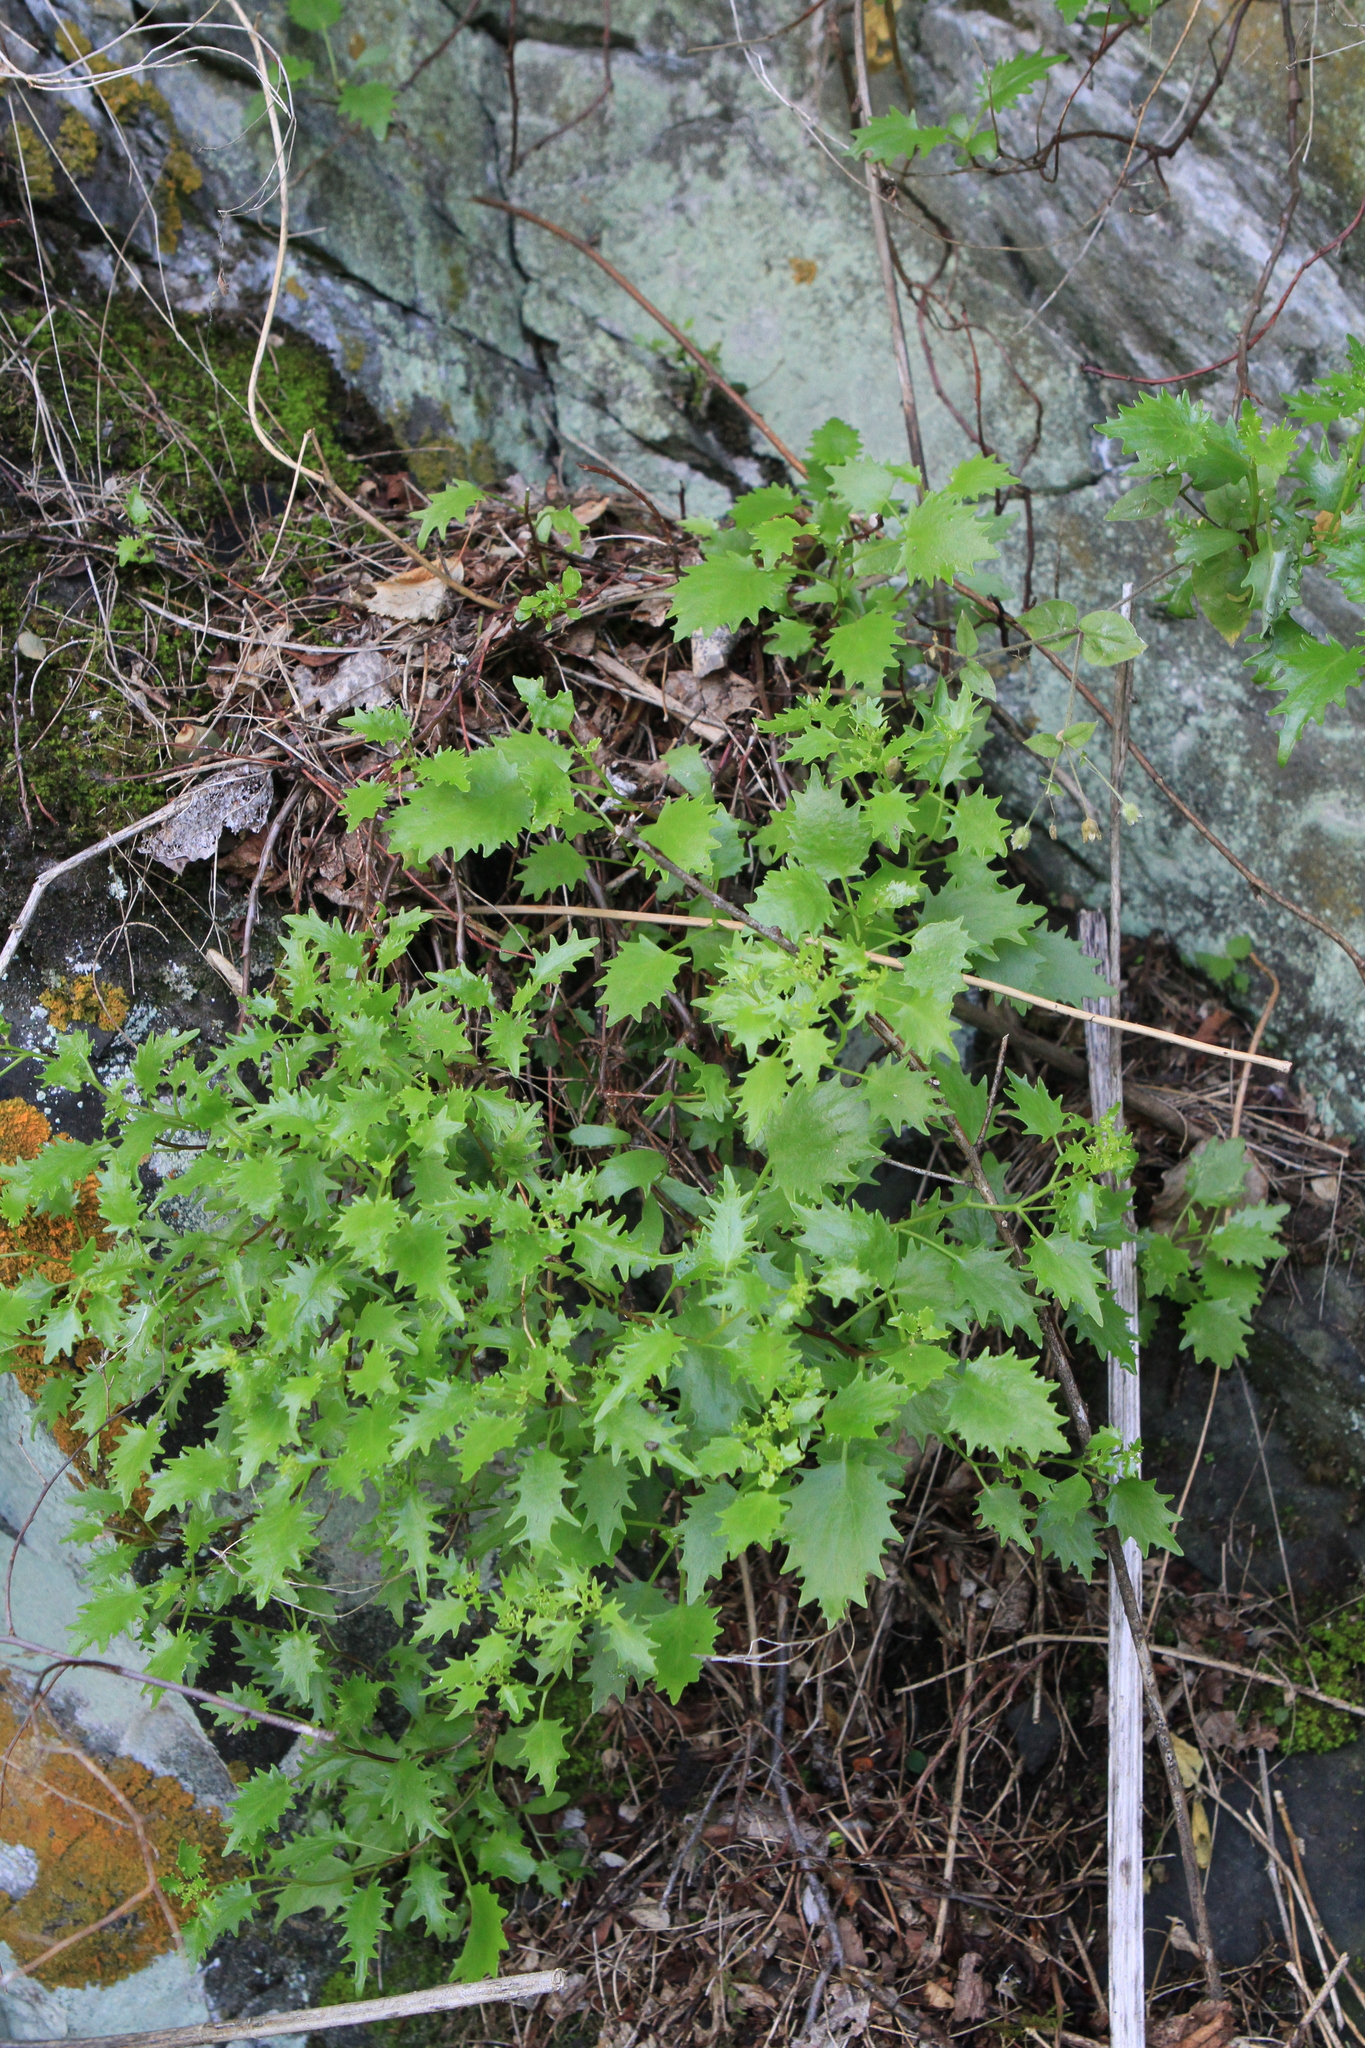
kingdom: Plantae
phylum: Tracheophyta
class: Magnoliopsida
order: Saxifragales
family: Crassulaceae
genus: Hylotelephium
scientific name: Hylotelephium populifolium
